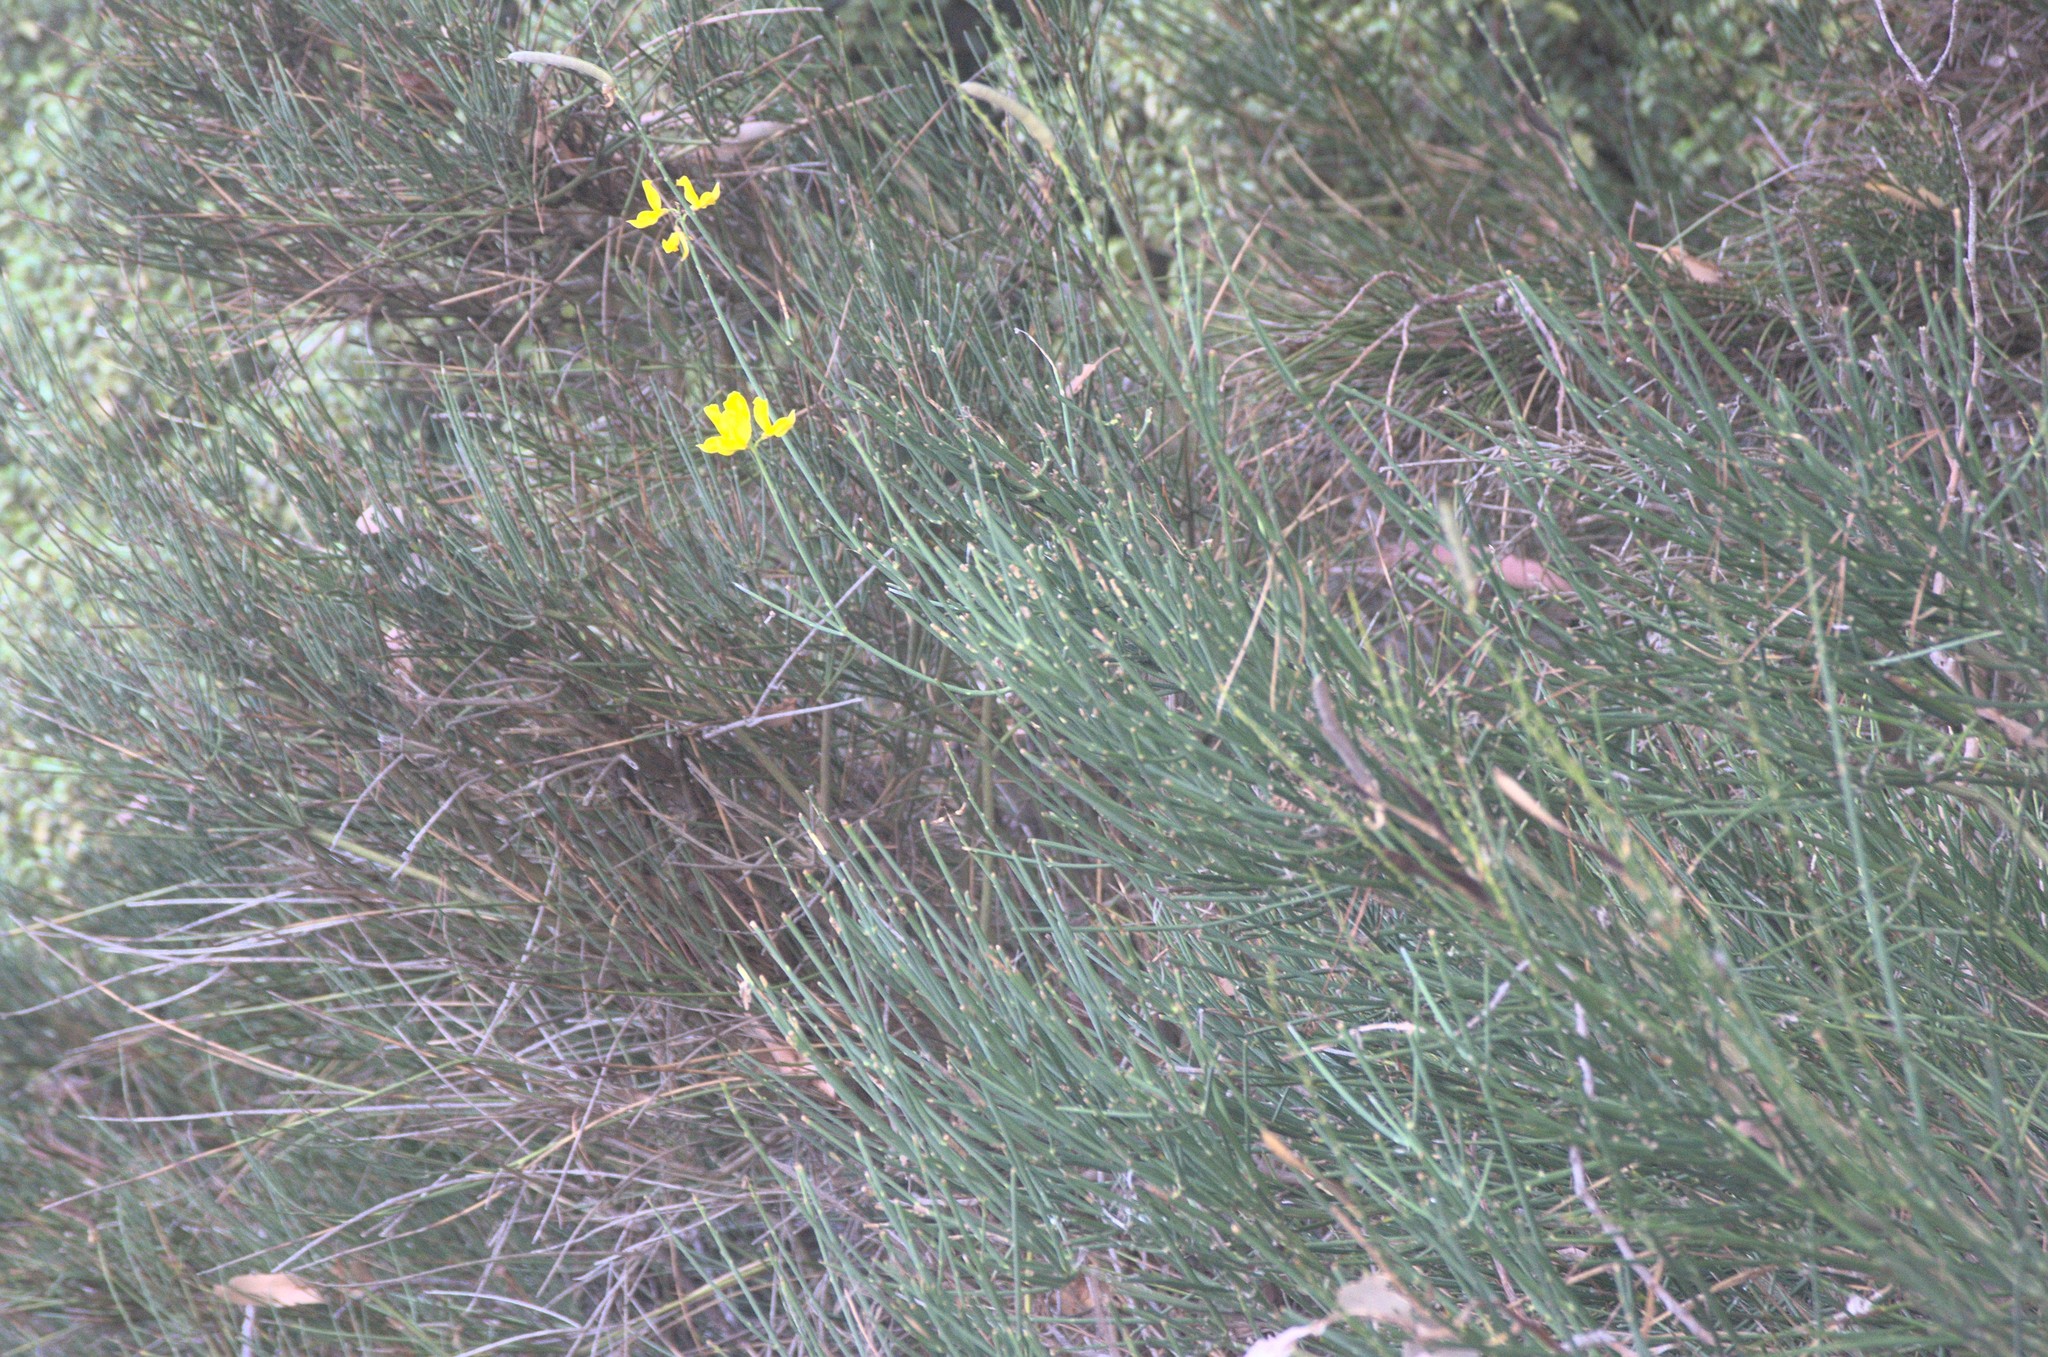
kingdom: Plantae
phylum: Tracheophyta
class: Magnoliopsida
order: Fabales
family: Fabaceae
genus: Spartium
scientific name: Spartium junceum
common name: Spanish broom
